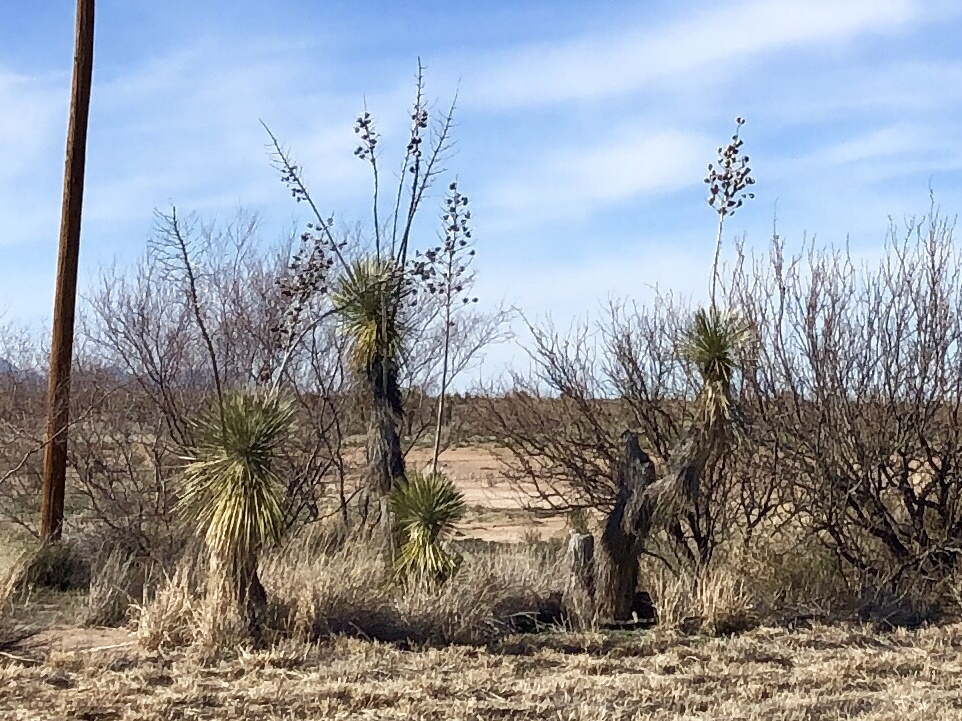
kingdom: Plantae
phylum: Tracheophyta
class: Liliopsida
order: Asparagales
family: Asparagaceae
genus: Yucca
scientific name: Yucca elata
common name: Palmella
